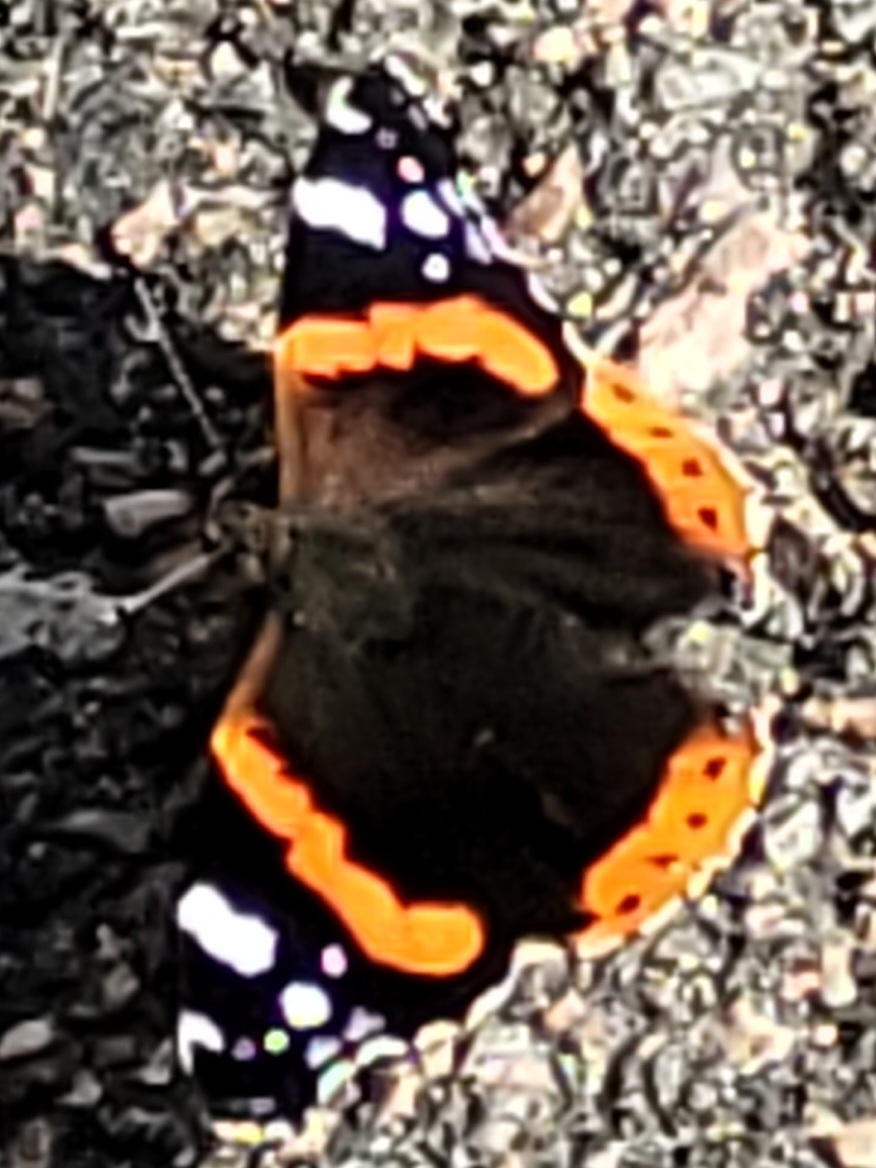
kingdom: Animalia
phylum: Arthropoda
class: Insecta
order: Lepidoptera
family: Nymphalidae
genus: Vanessa
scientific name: Vanessa atalanta
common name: Red admiral
